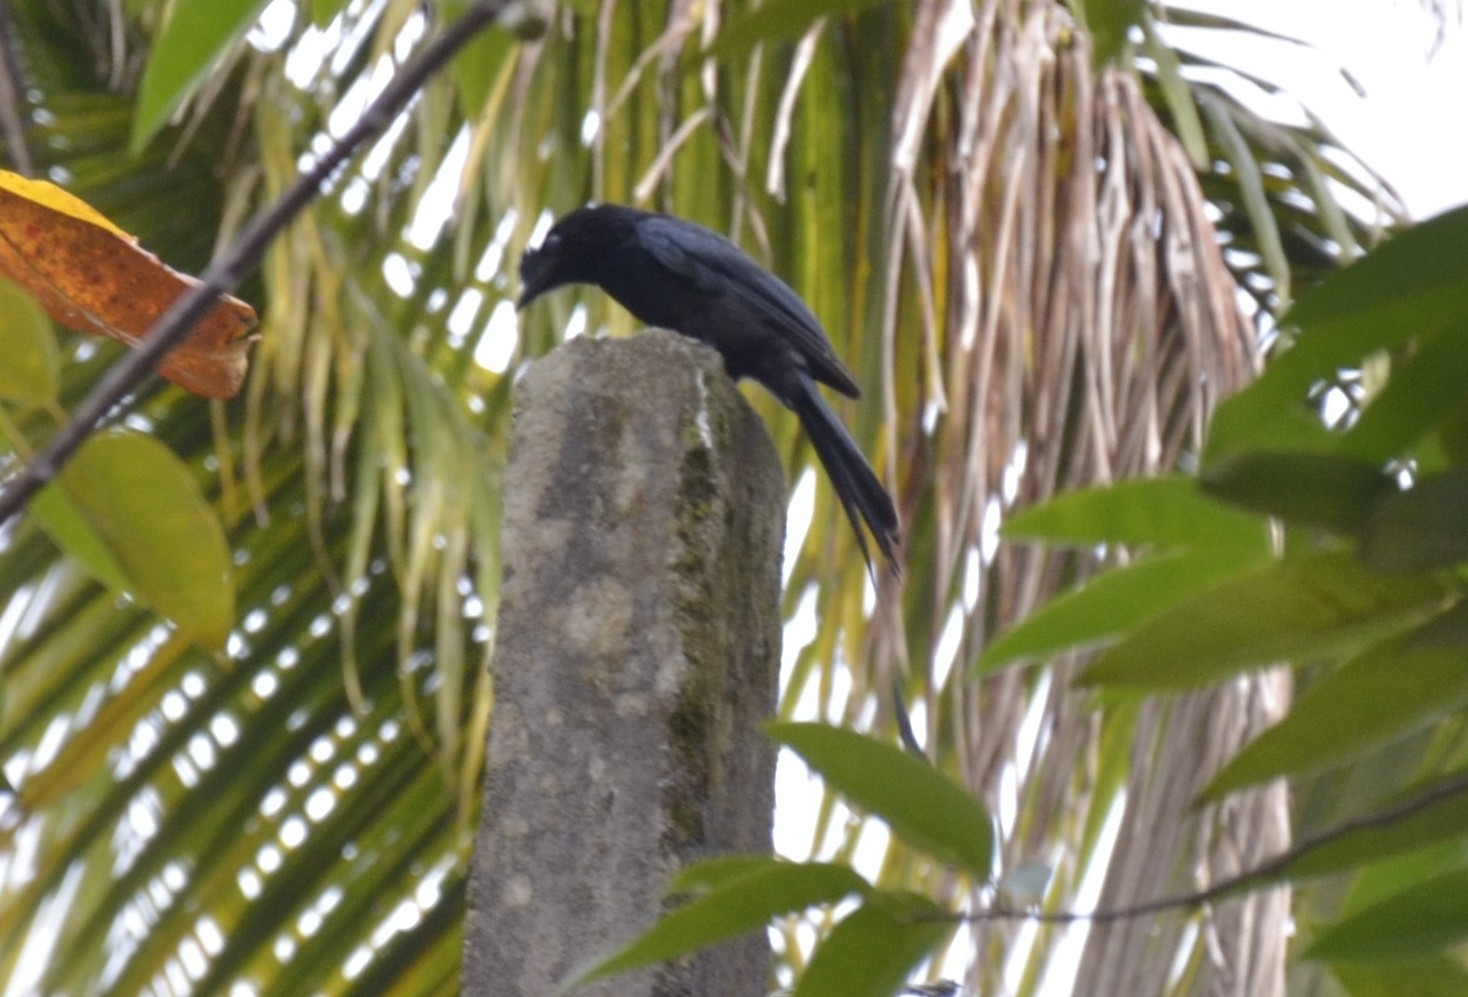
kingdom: Animalia
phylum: Chordata
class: Aves
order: Passeriformes
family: Dicruridae
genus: Dicrurus
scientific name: Dicrurus paradiseus
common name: Greater racket-tailed drongo
